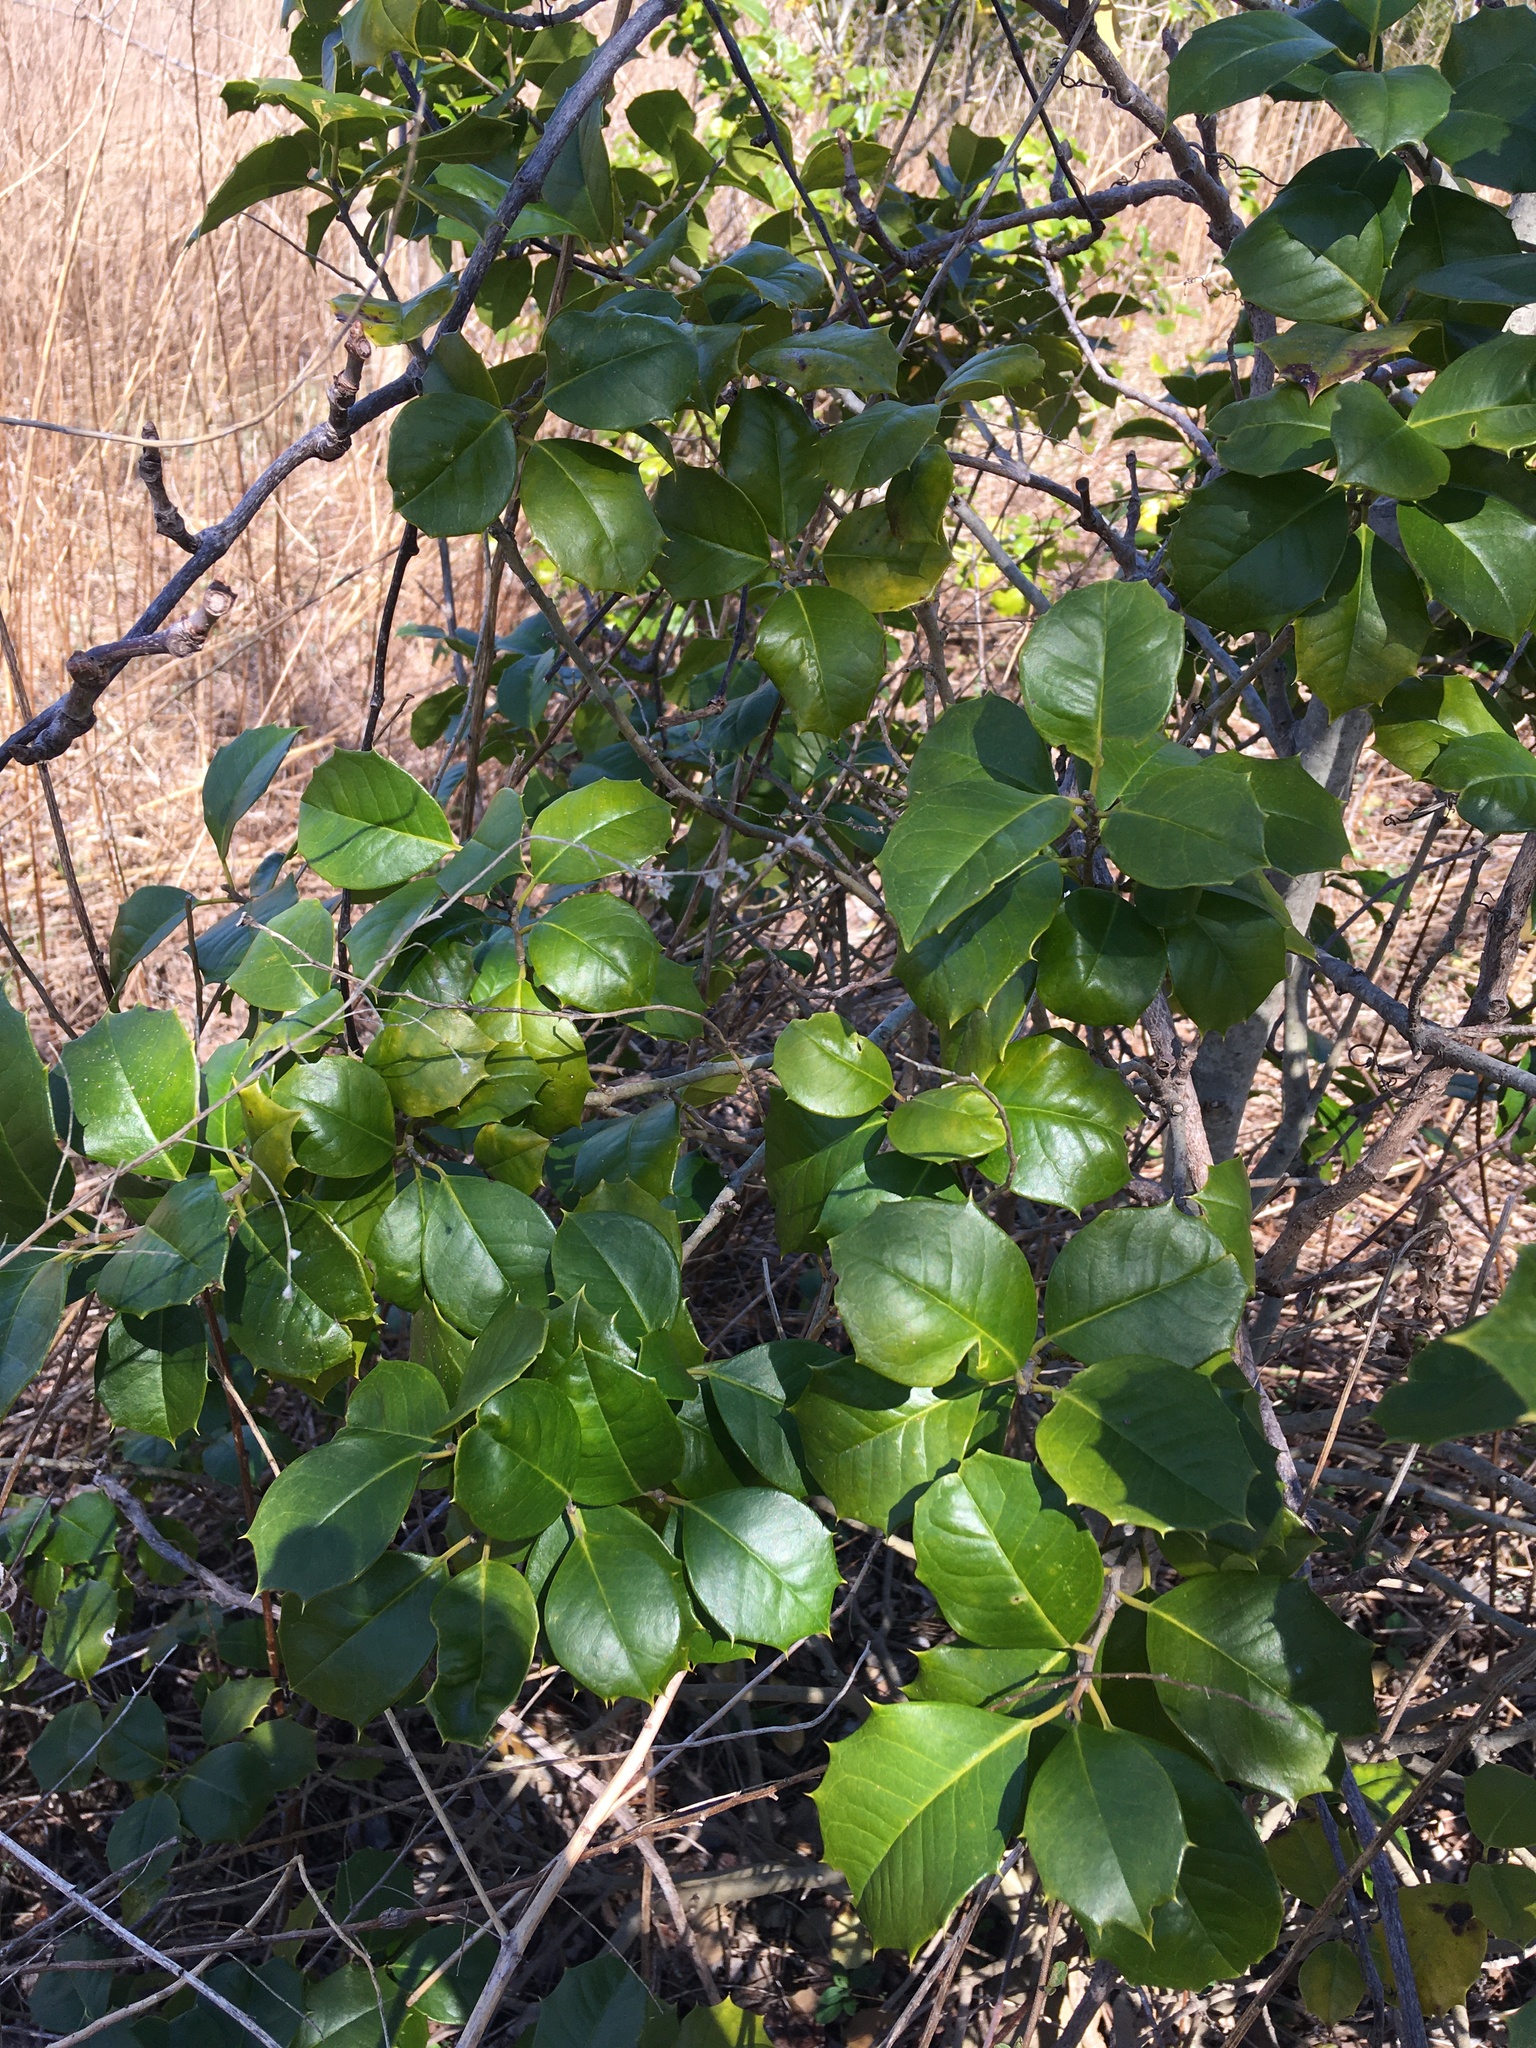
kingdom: Plantae
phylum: Tracheophyta
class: Magnoliopsida
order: Aquifoliales
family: Aquifoliaceae
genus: Ilex
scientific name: Ilex opaca
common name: American holly
